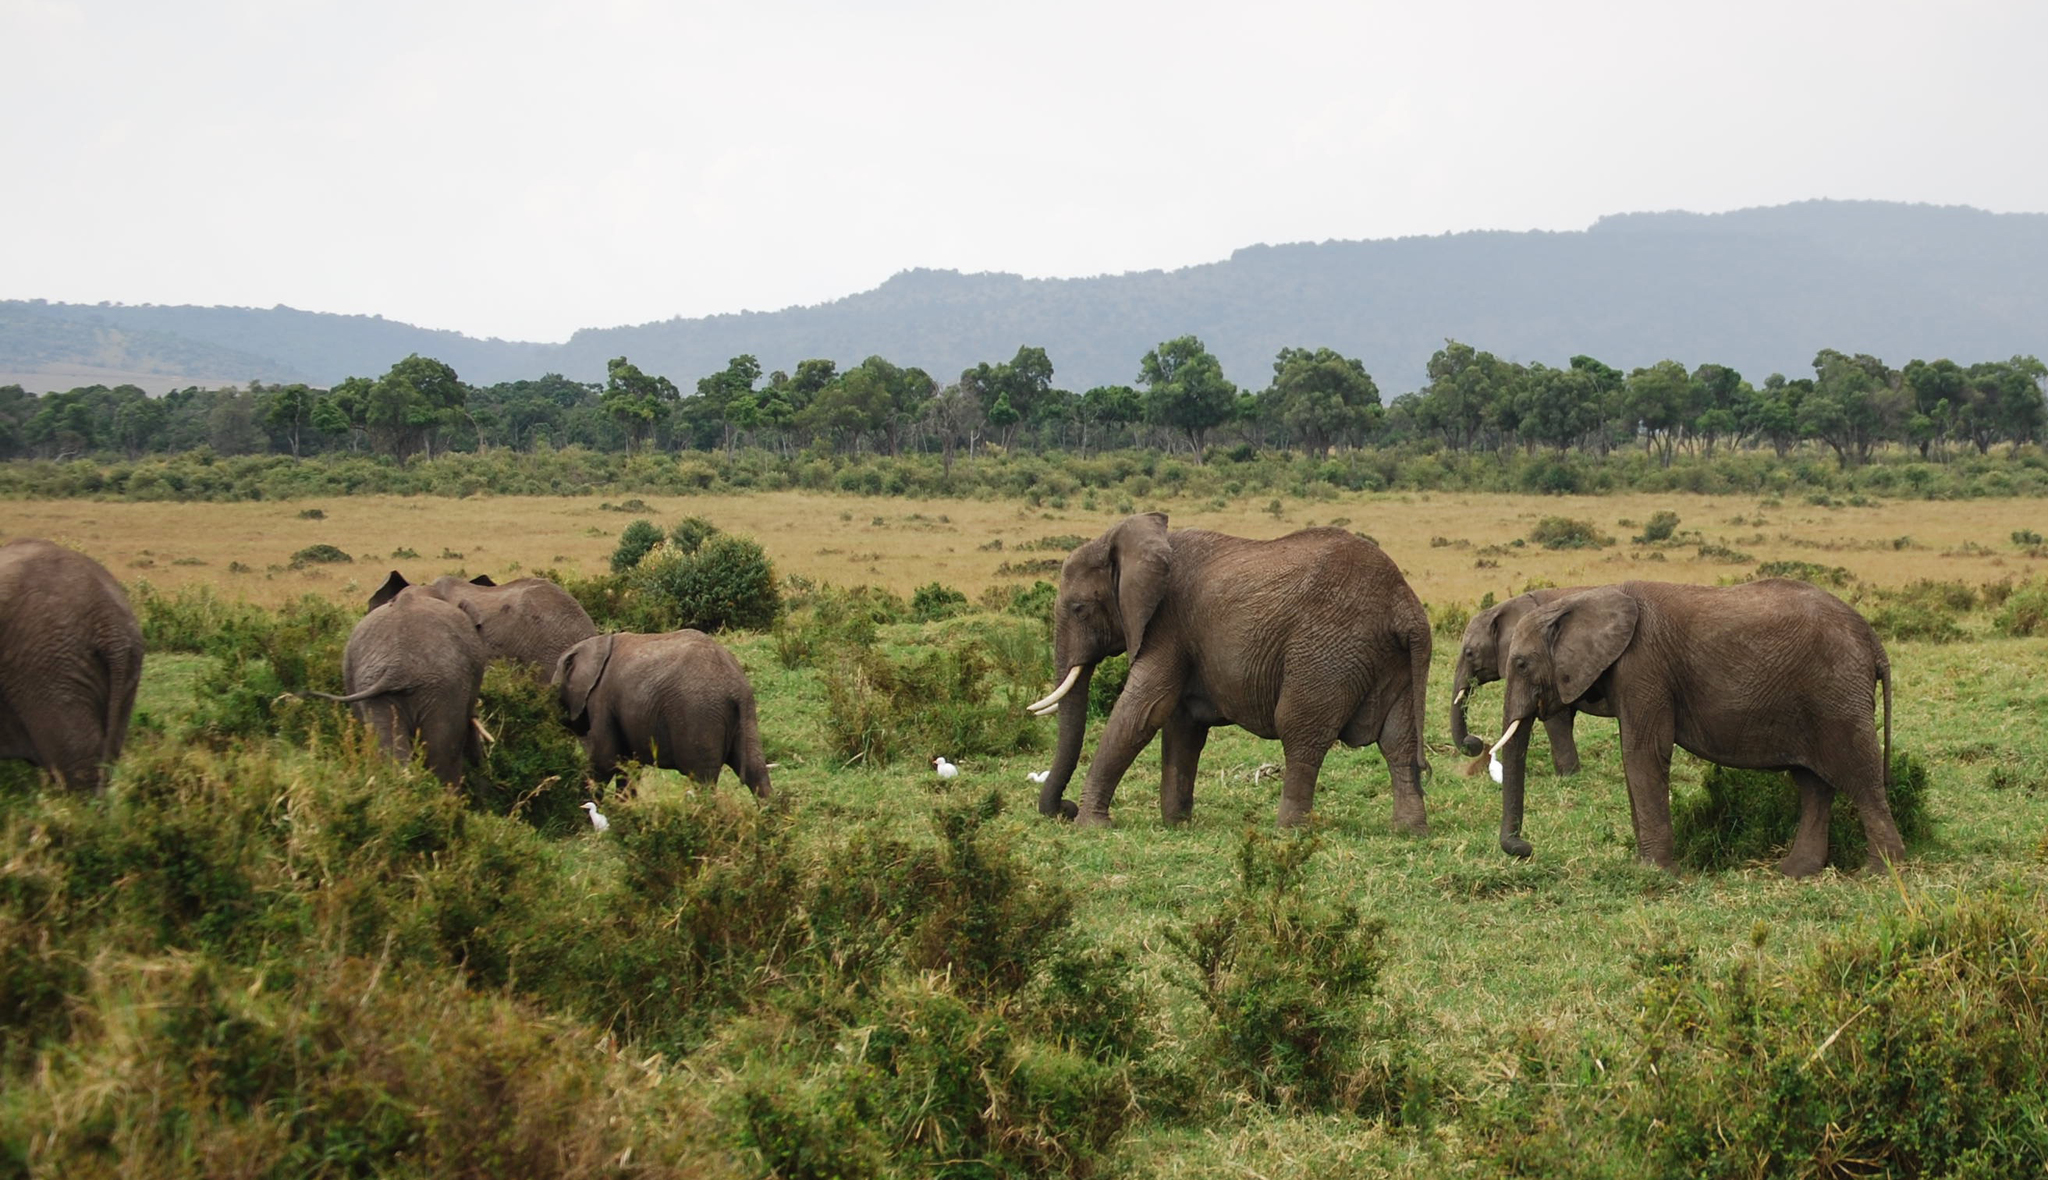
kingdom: Animalia
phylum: Chordata
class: Mammalia
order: Proboscidea
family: Elephantidae
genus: Loxodonta
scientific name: Loxodonta africana
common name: African elephant
